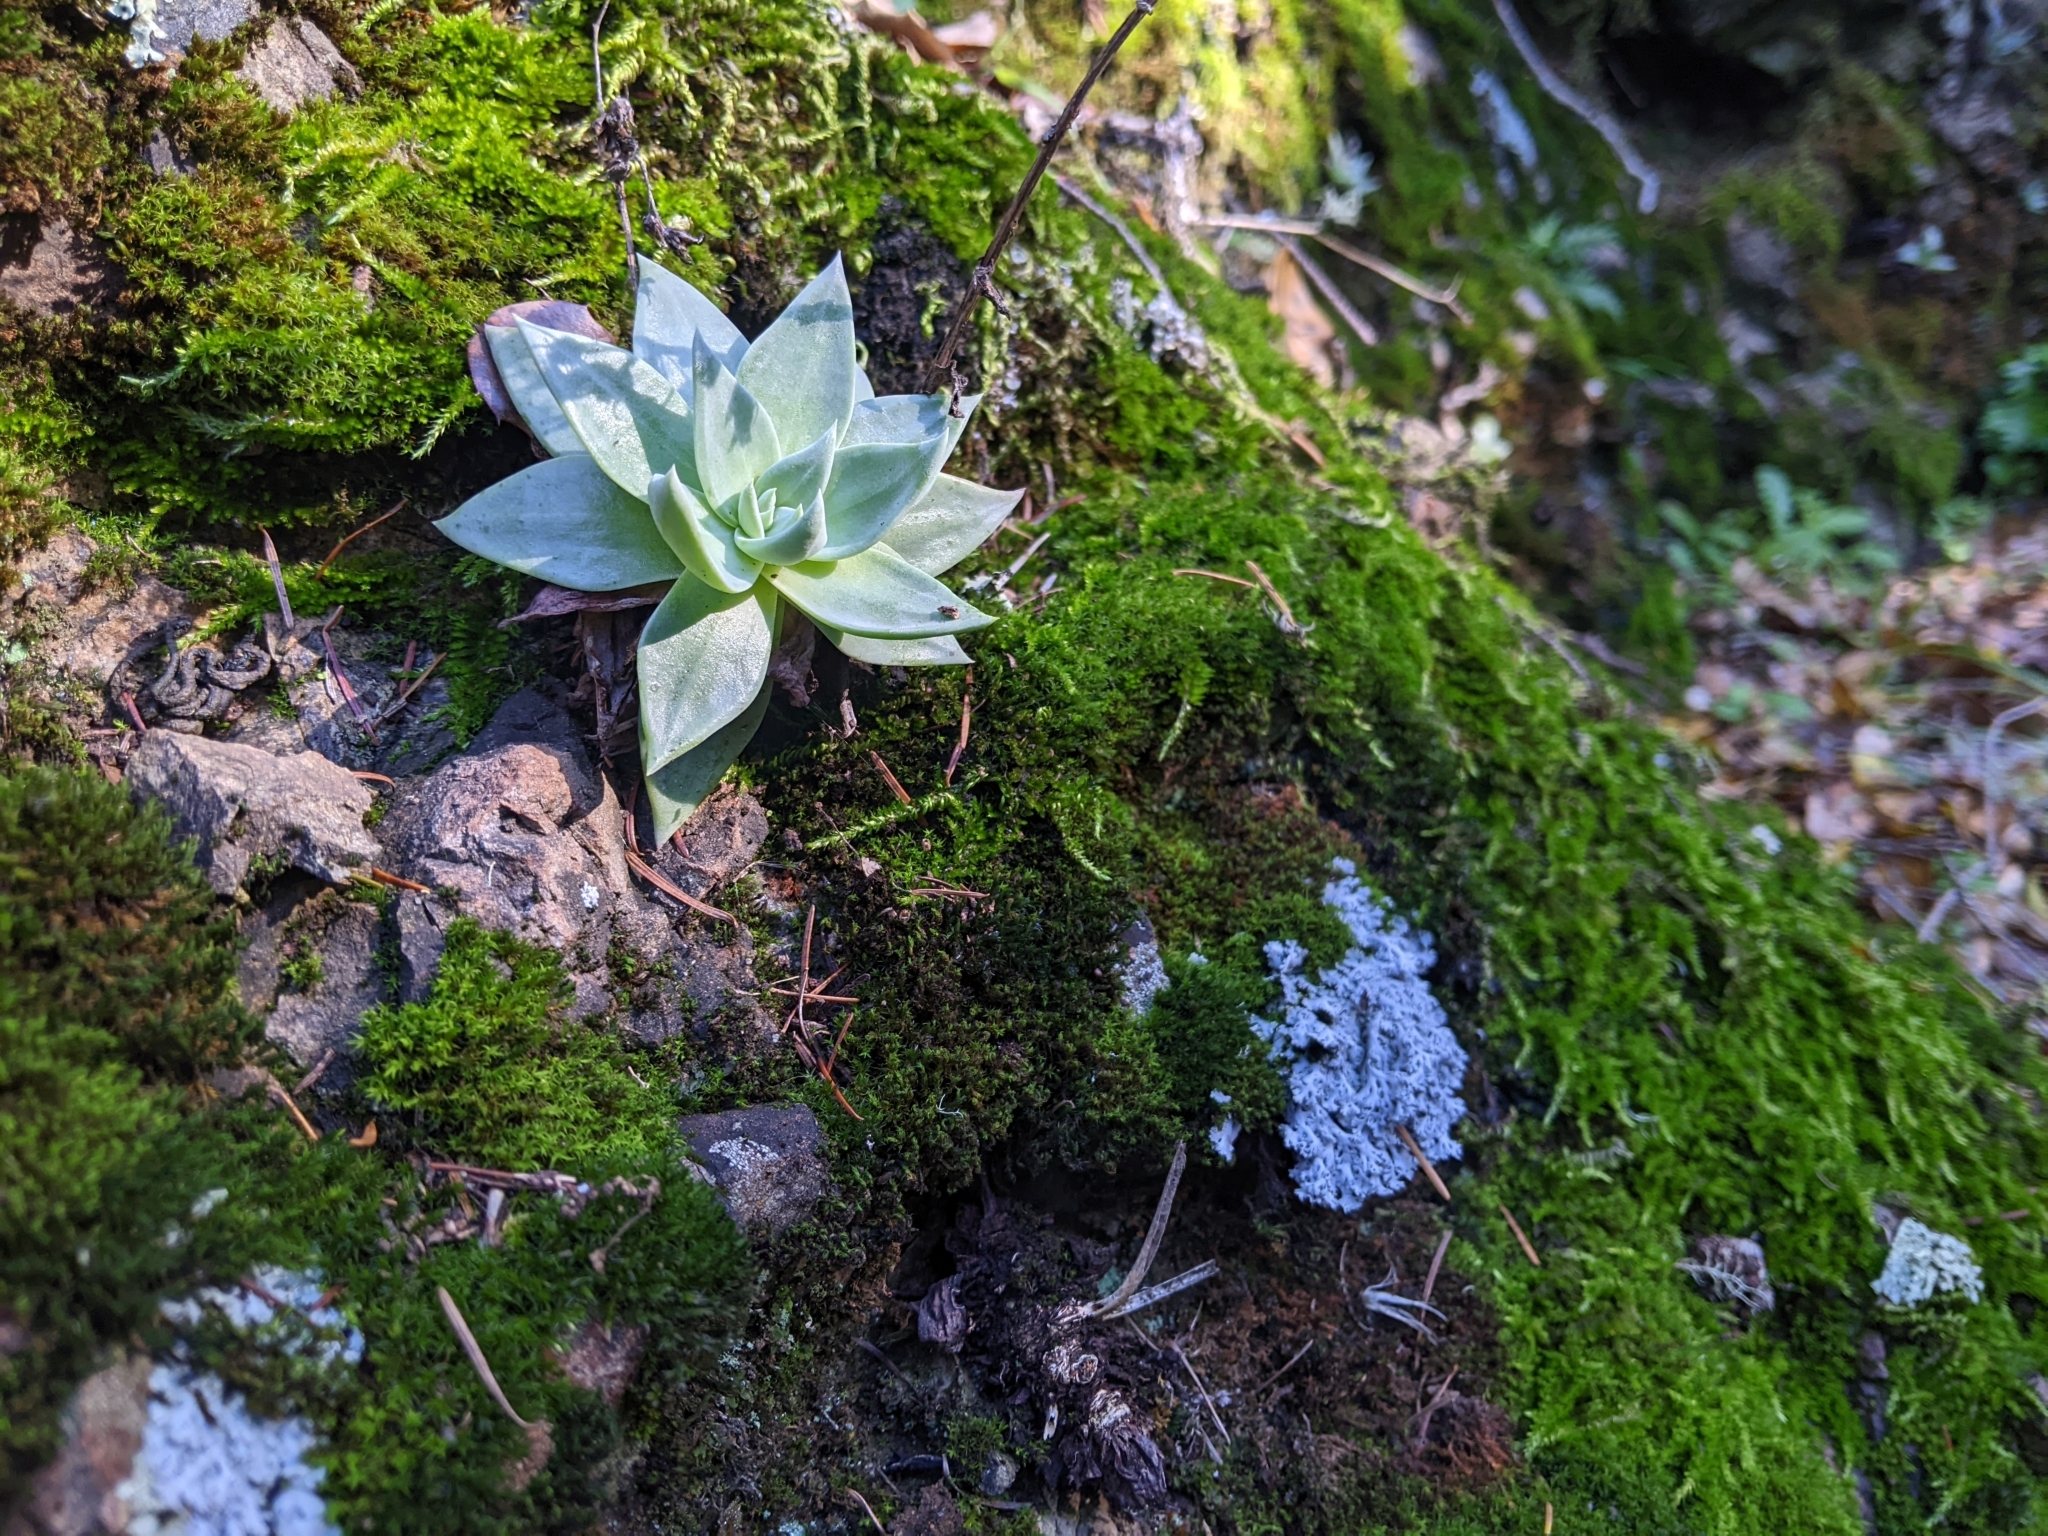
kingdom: Plantae
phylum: Tracheophyta
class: Magnoliopsida
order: Saxifragales
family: Crassulaceae
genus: Dudleya
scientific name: Dudleya cymosa
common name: Canyon dudleya
